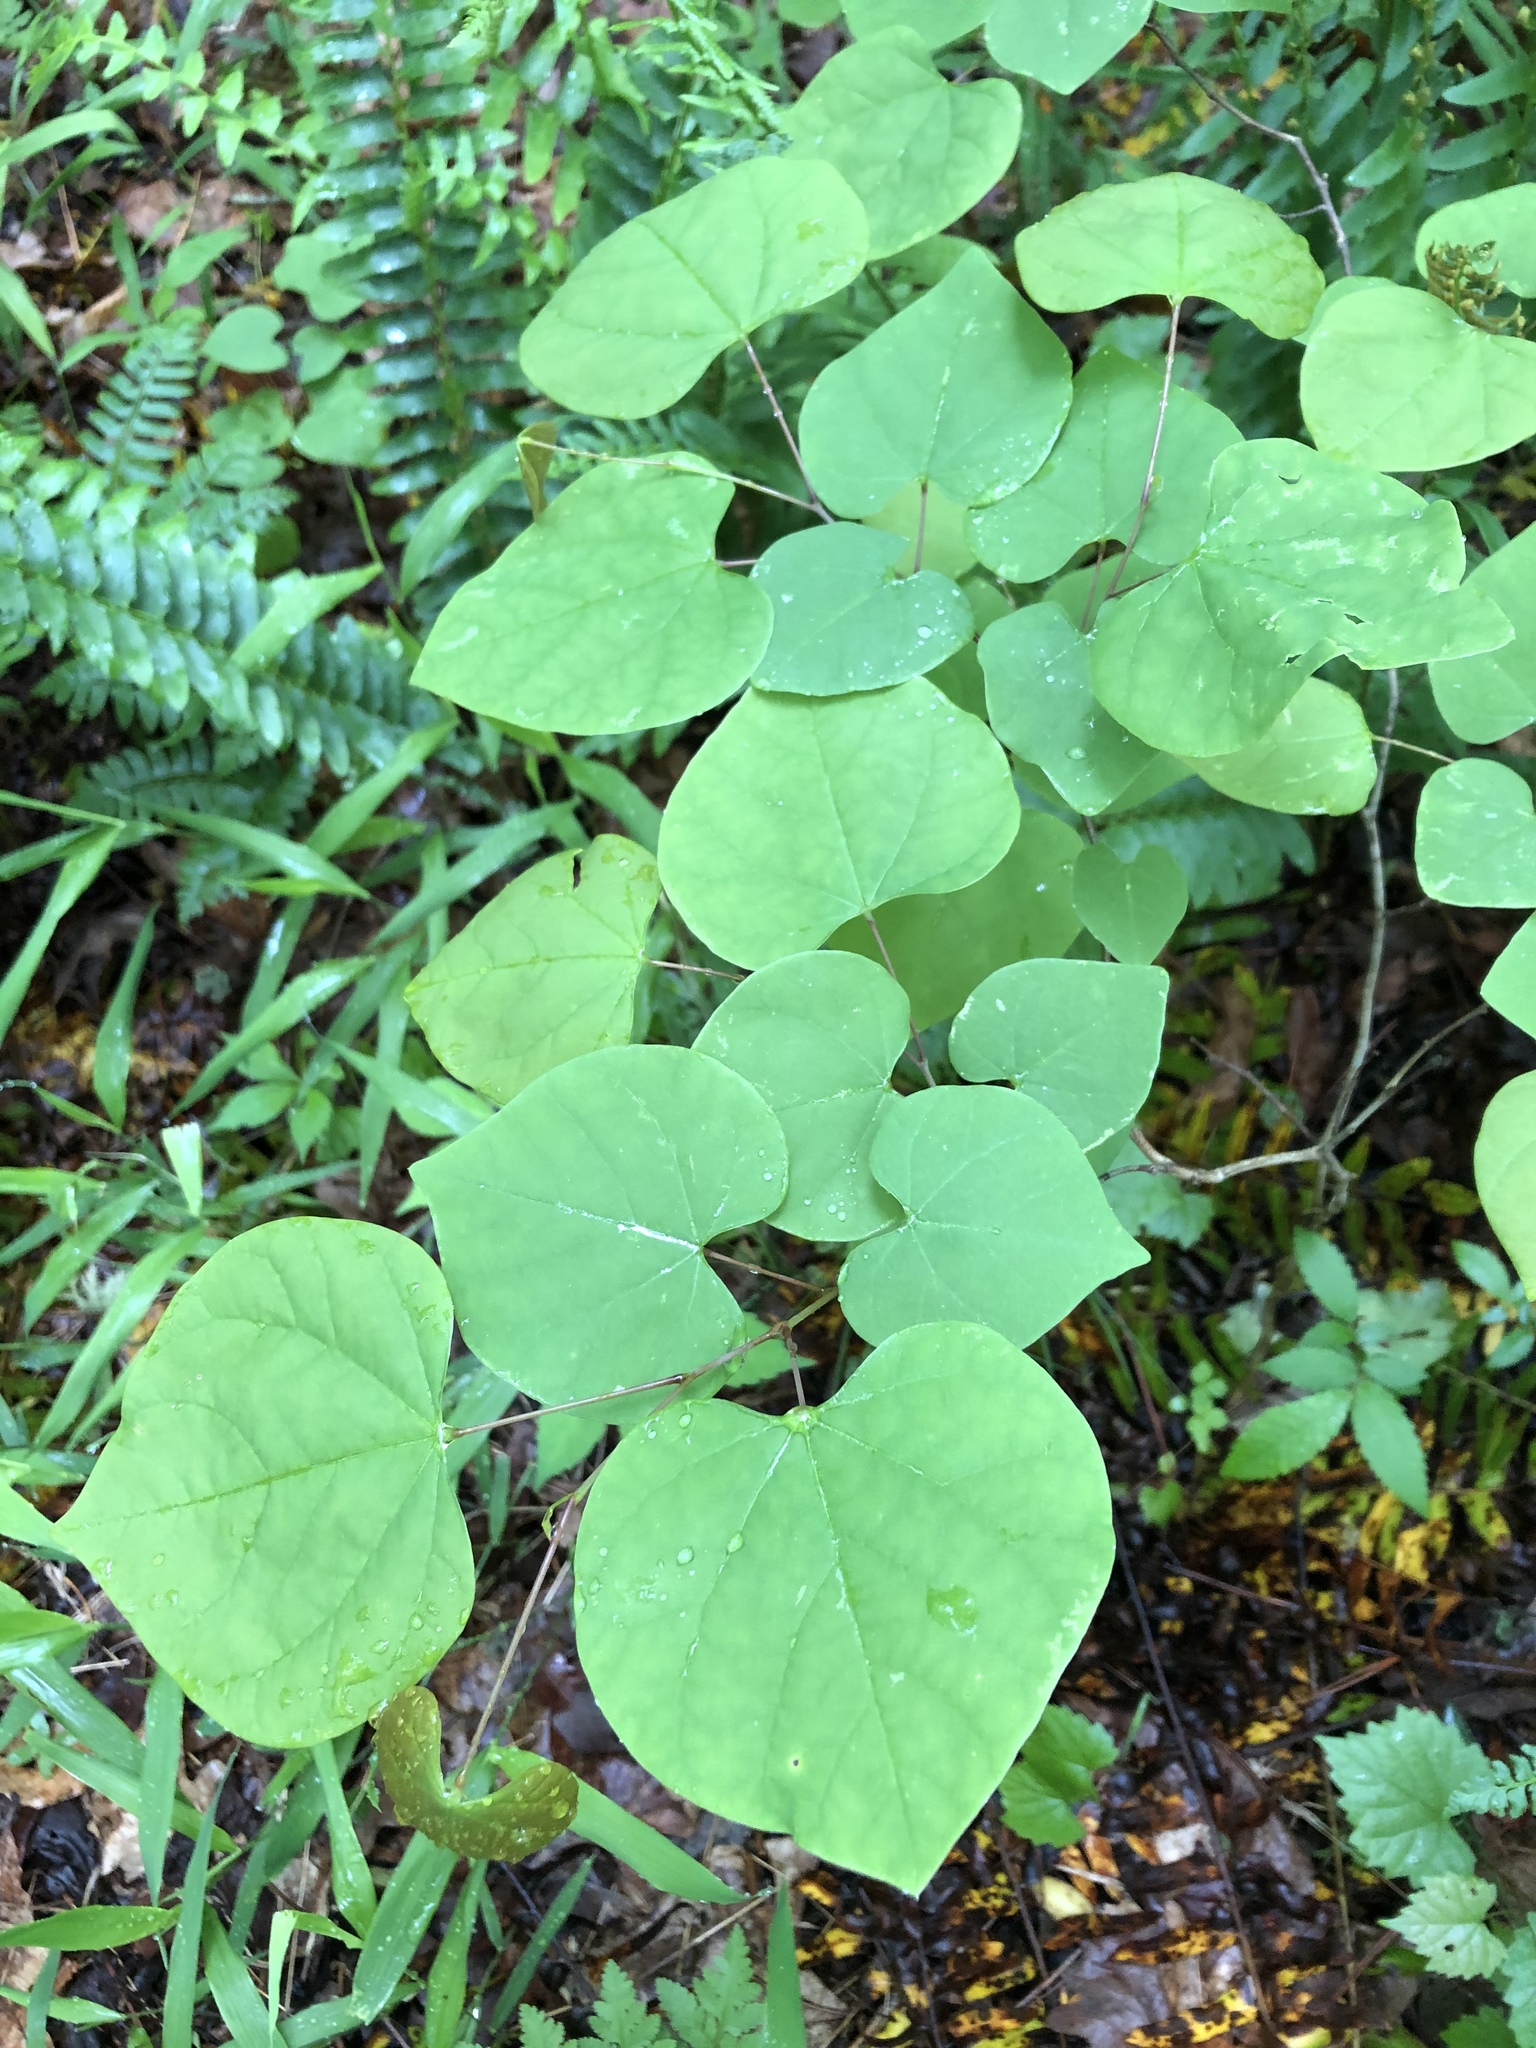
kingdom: Plantae
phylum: Tracheophyta
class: Magnoliopsida
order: Fabales
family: Fabaceae
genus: Cercis
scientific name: Cercis canadensis
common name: Eastern redbud
